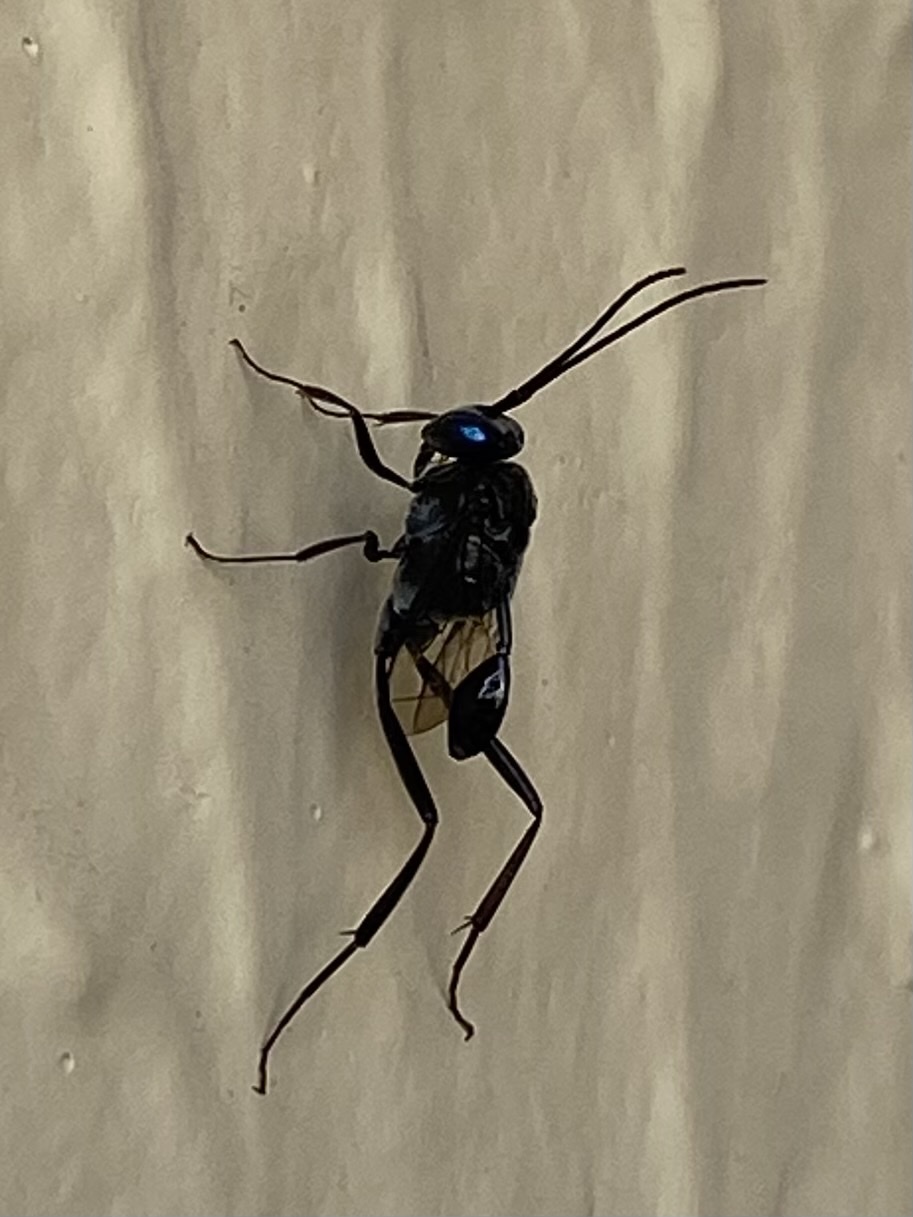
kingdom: Animalia
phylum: Arthropoda
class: Insecta
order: Hymenoptera
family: Evaniidae
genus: Evania
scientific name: Evania appendigaster
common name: Ensign wasp
